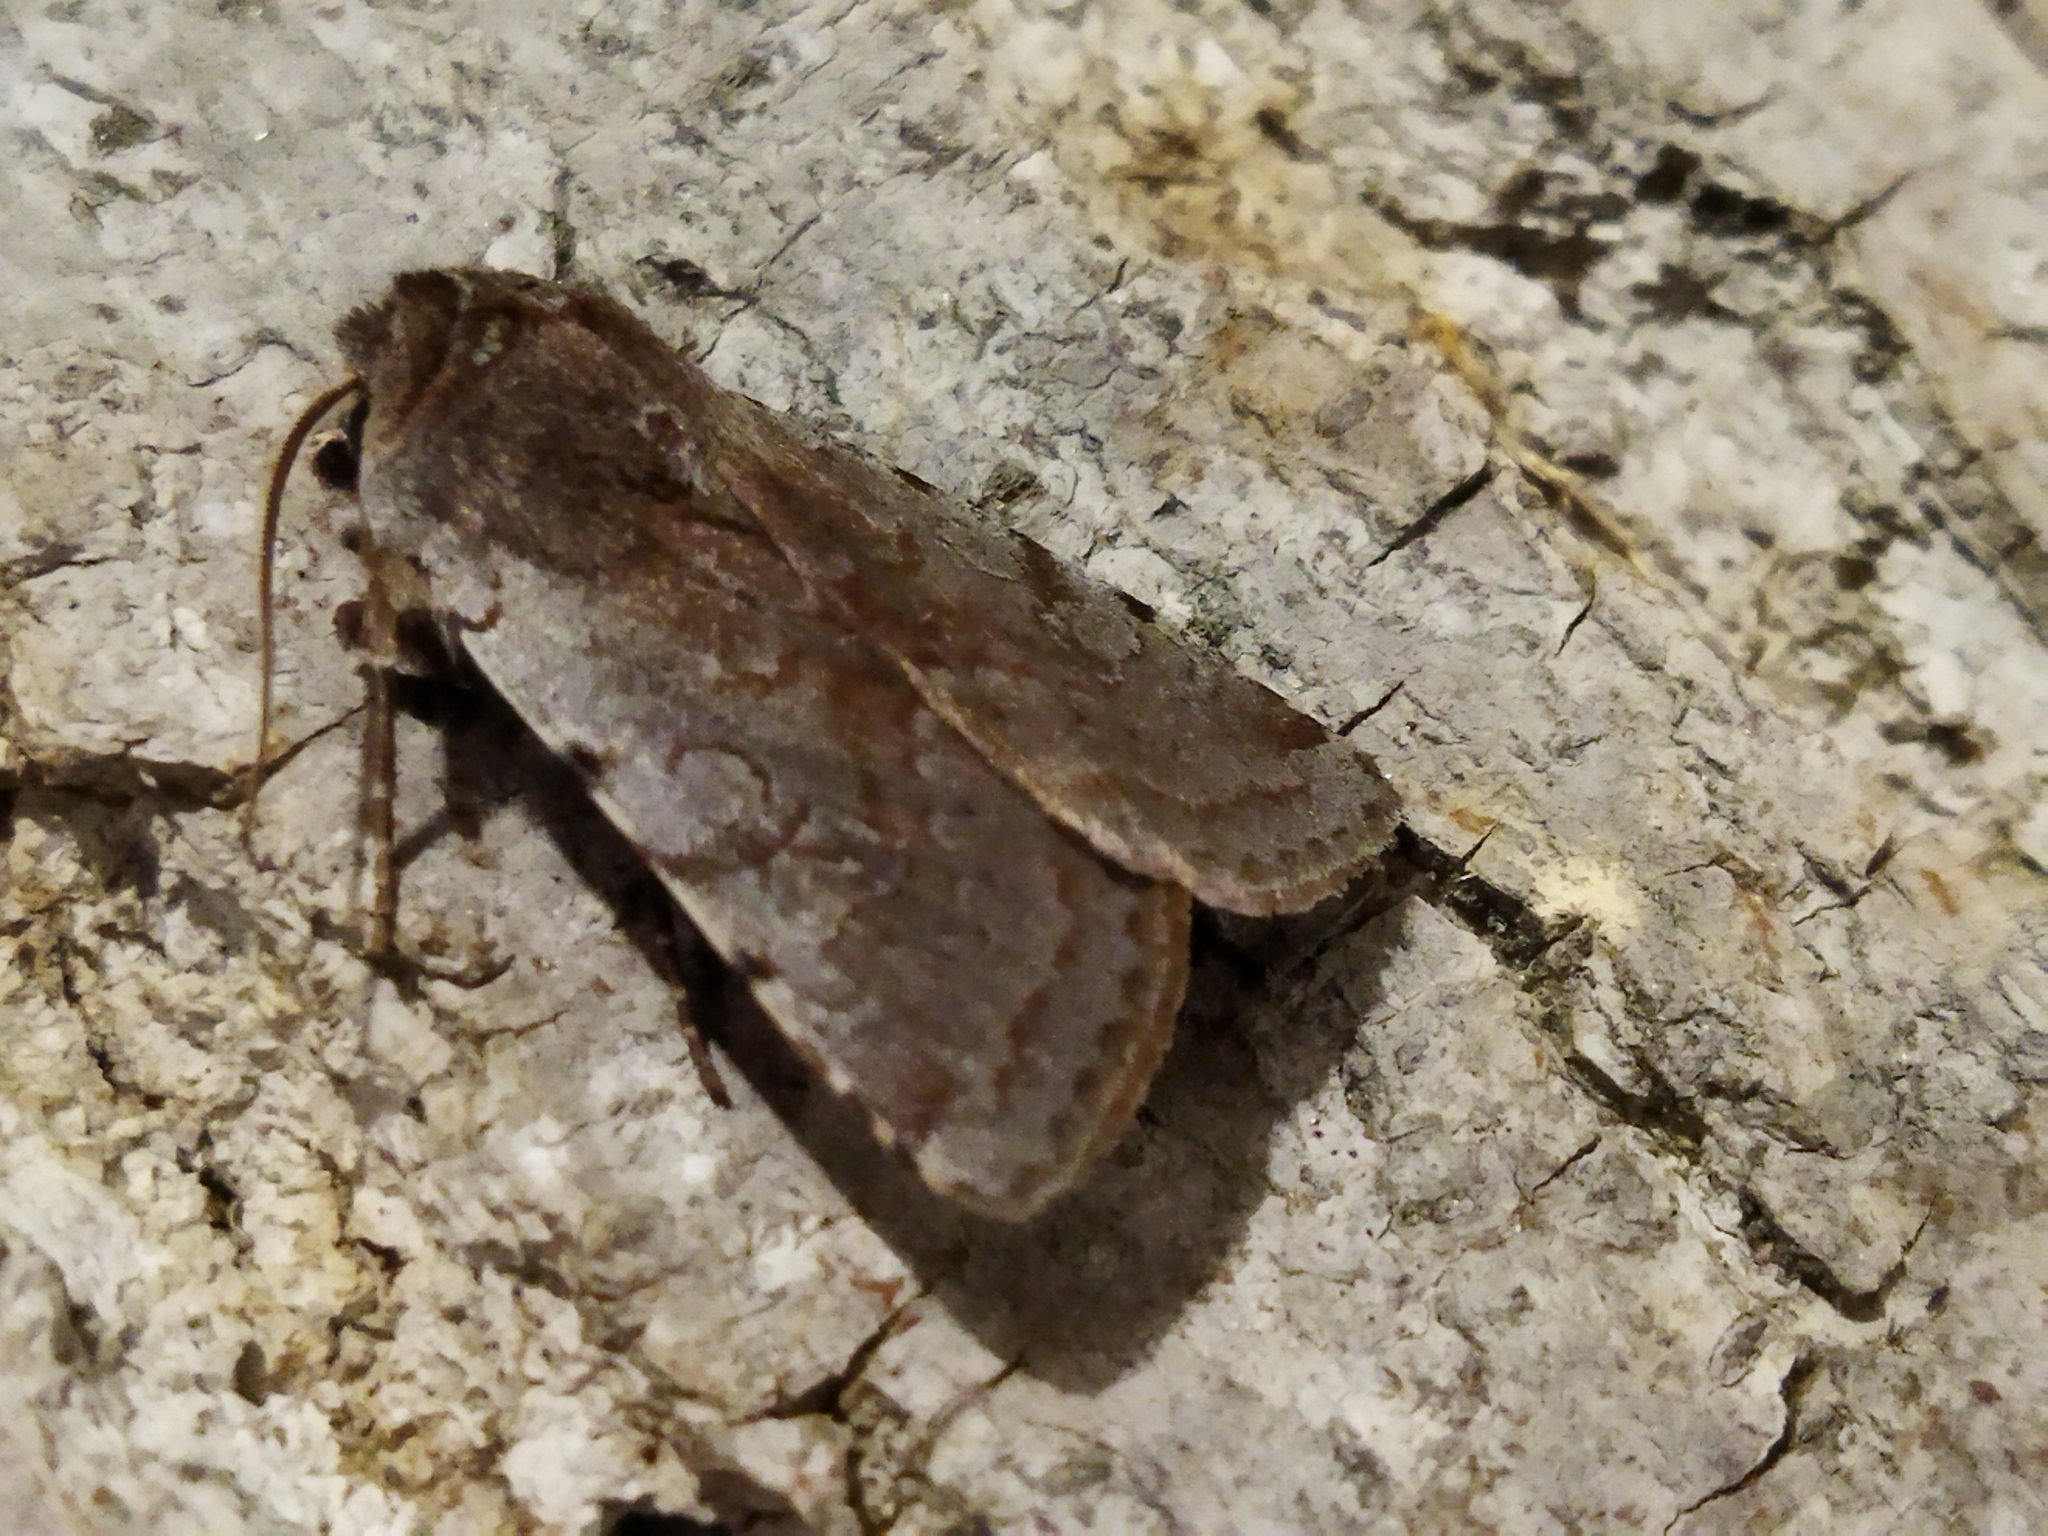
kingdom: Animalia
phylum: Arthropoda
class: Insecta
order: Lepidoptera
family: Noctuidae
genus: Cerastis
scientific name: Cerastis rubricosa
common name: Red chestnut
